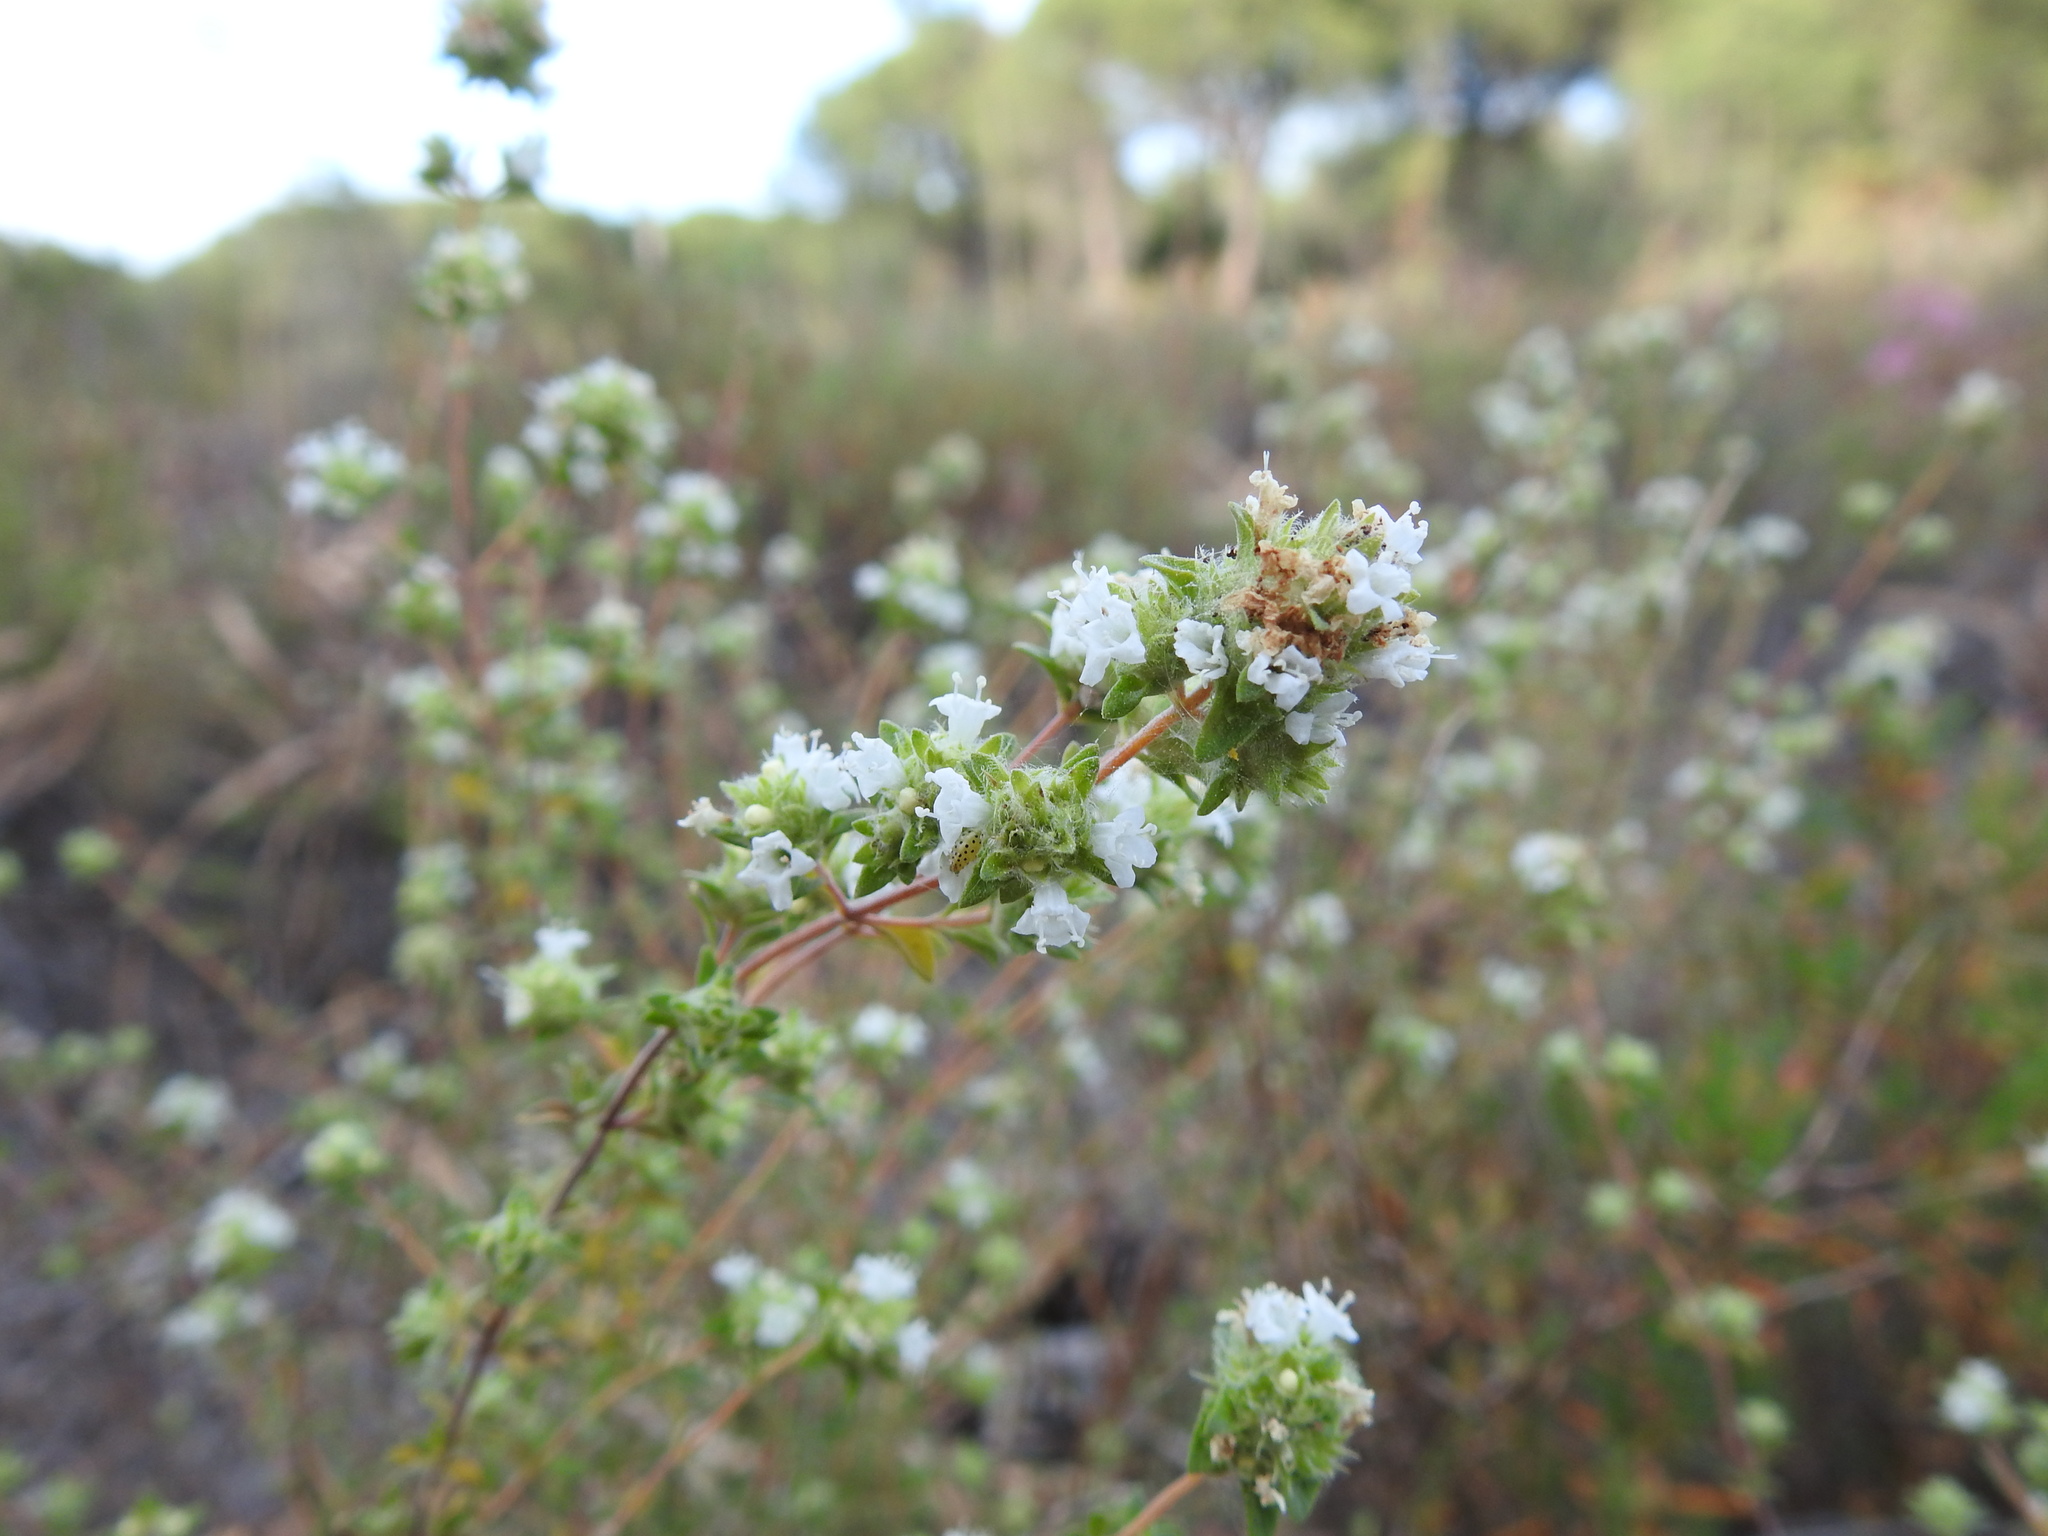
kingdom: Plantae
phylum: Tracheophyta
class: Magnoliopsida
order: Lamiales
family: Lamiaceae
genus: Thymus
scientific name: Thymus albicans
